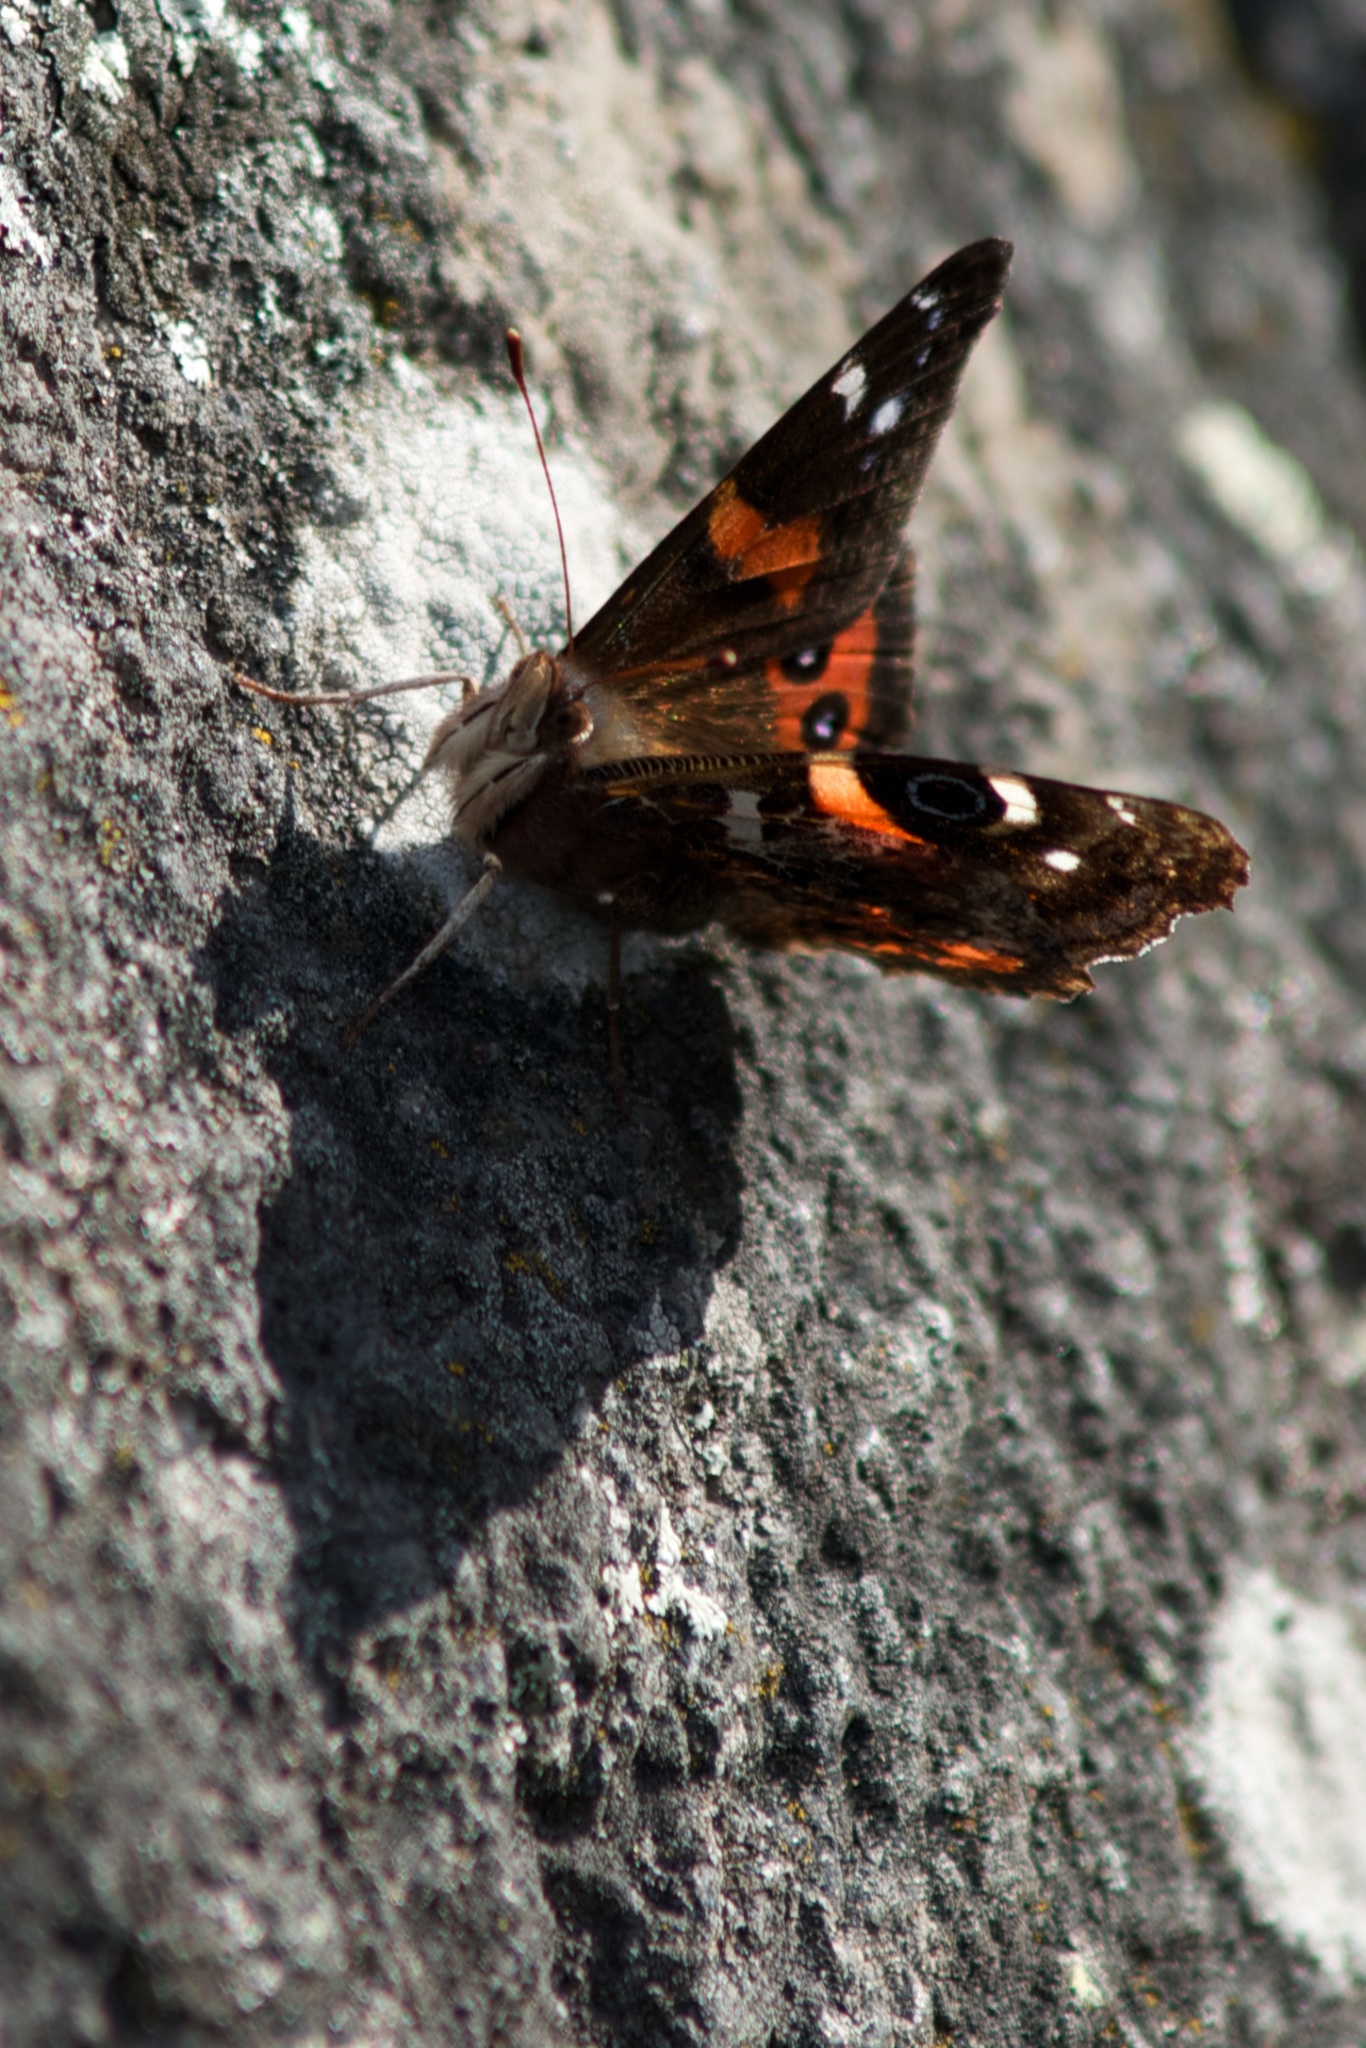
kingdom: Animalia
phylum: Arthropoda
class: Insecta
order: Lepidoptera
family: Nymphalidae
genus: Vanessa
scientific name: Vanessa gonerilla
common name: New zealand red admiral
